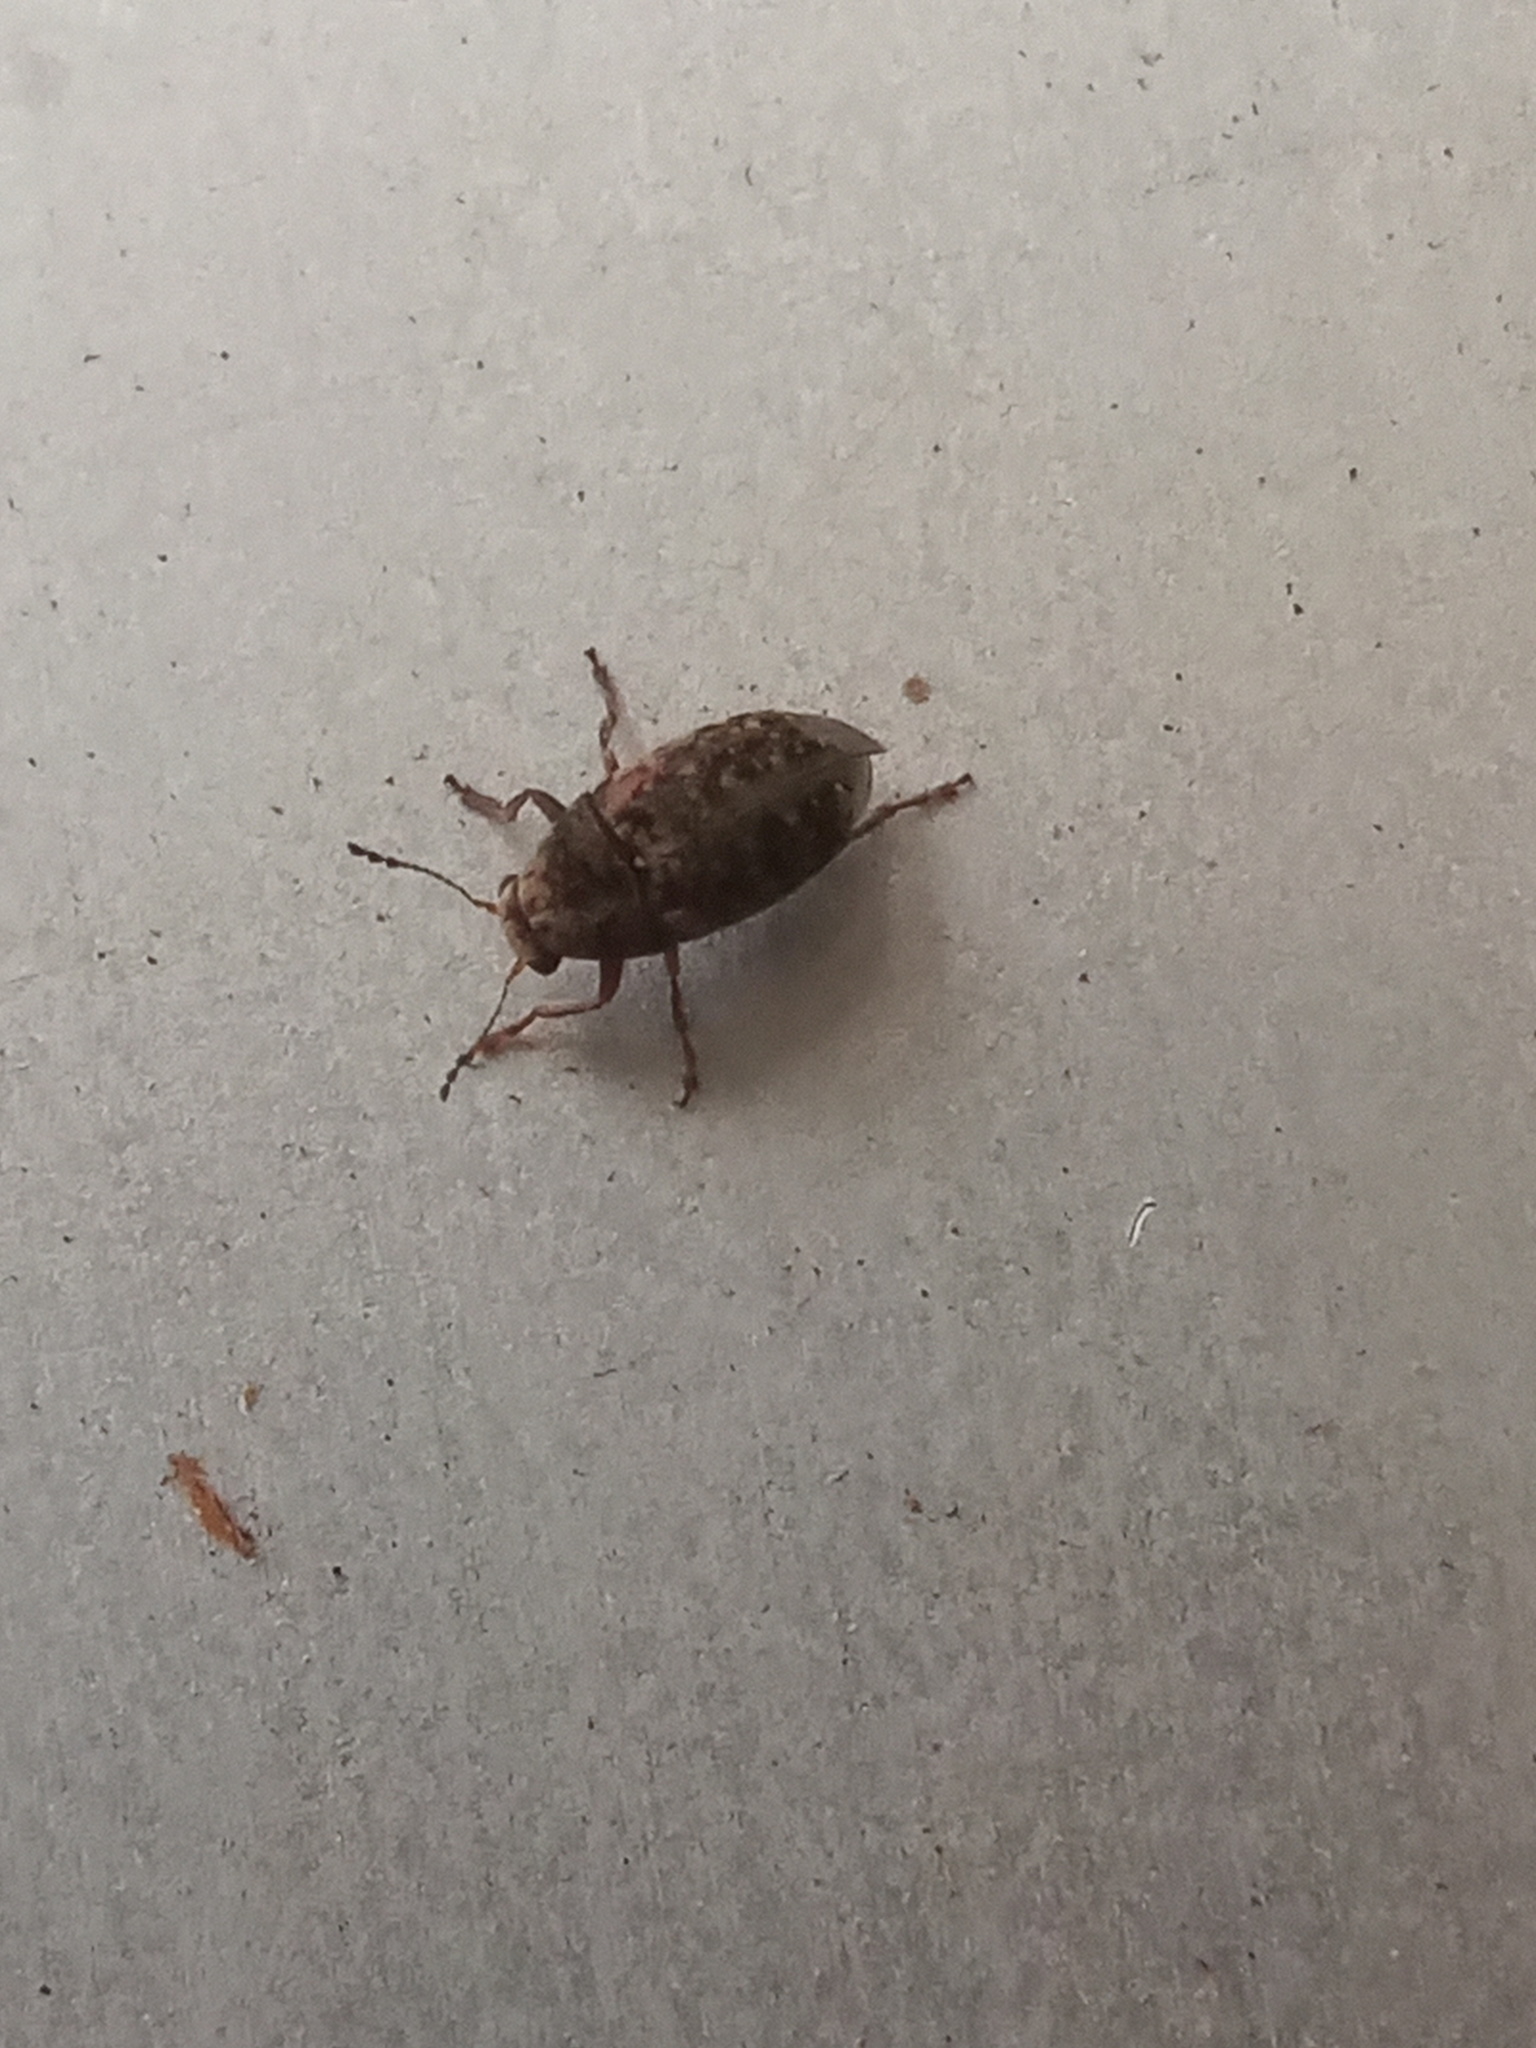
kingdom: Animalia
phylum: Arthropoda
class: Insecta
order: Coleoptera
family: Anthribidae
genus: Araecerus
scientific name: Araecerus fasciculatus
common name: Coffee bean weevil
